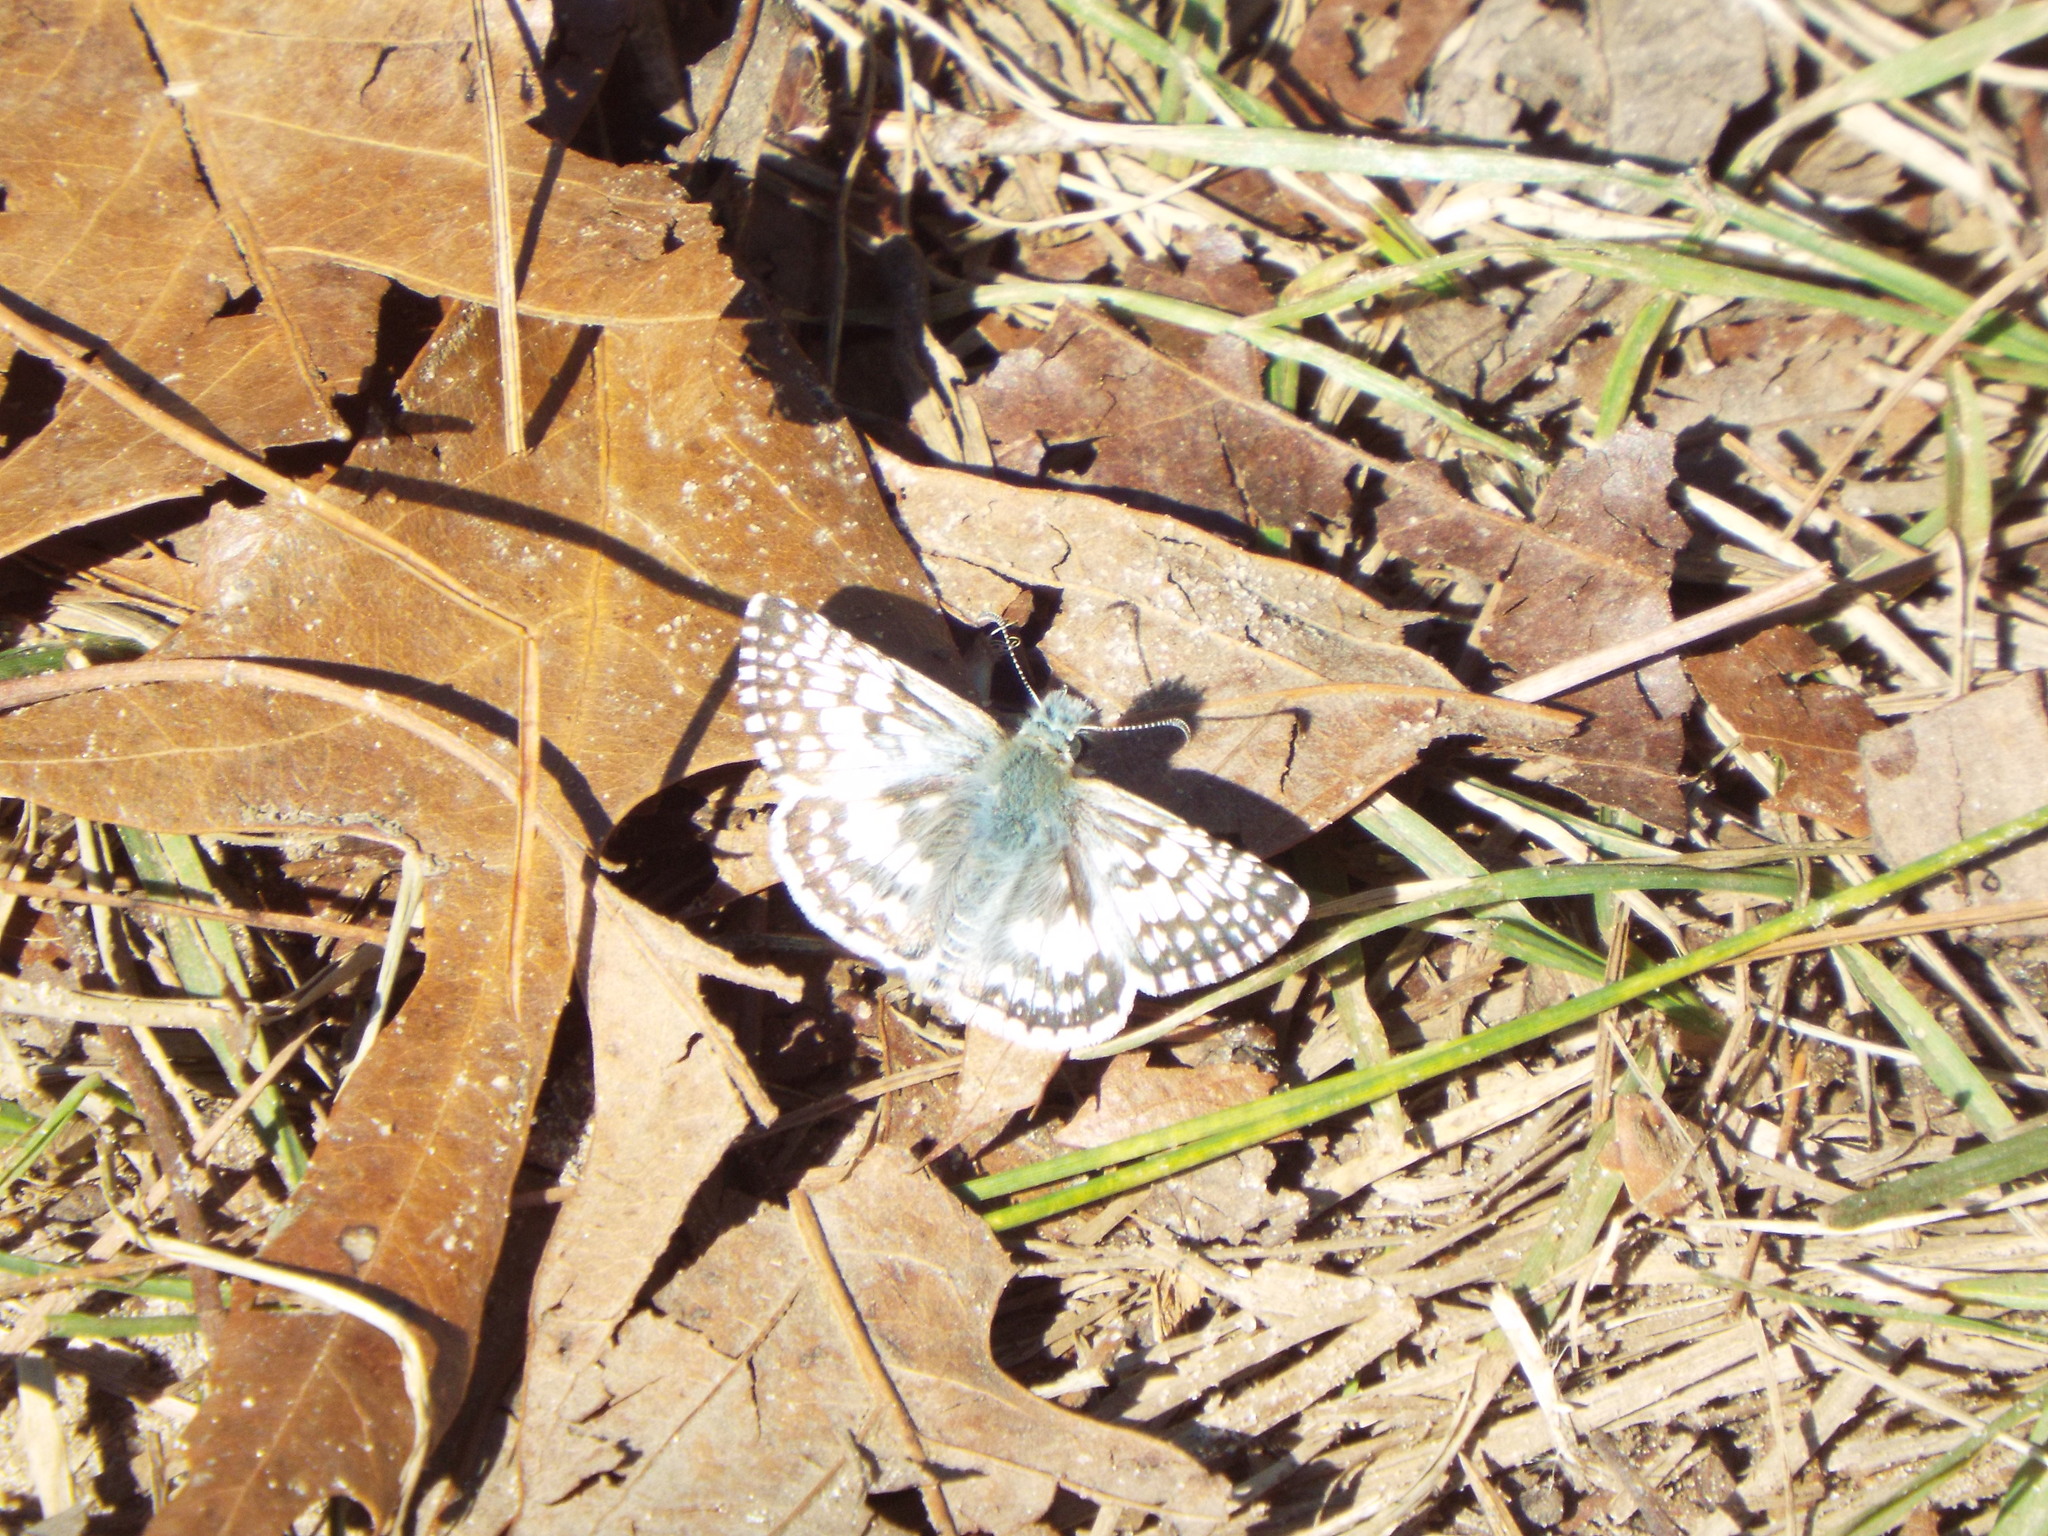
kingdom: Animalia
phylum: Arthropoda
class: Insecta
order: Lepidoptera
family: Hesperiidae
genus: Burnsius
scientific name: Burnsius albezens
